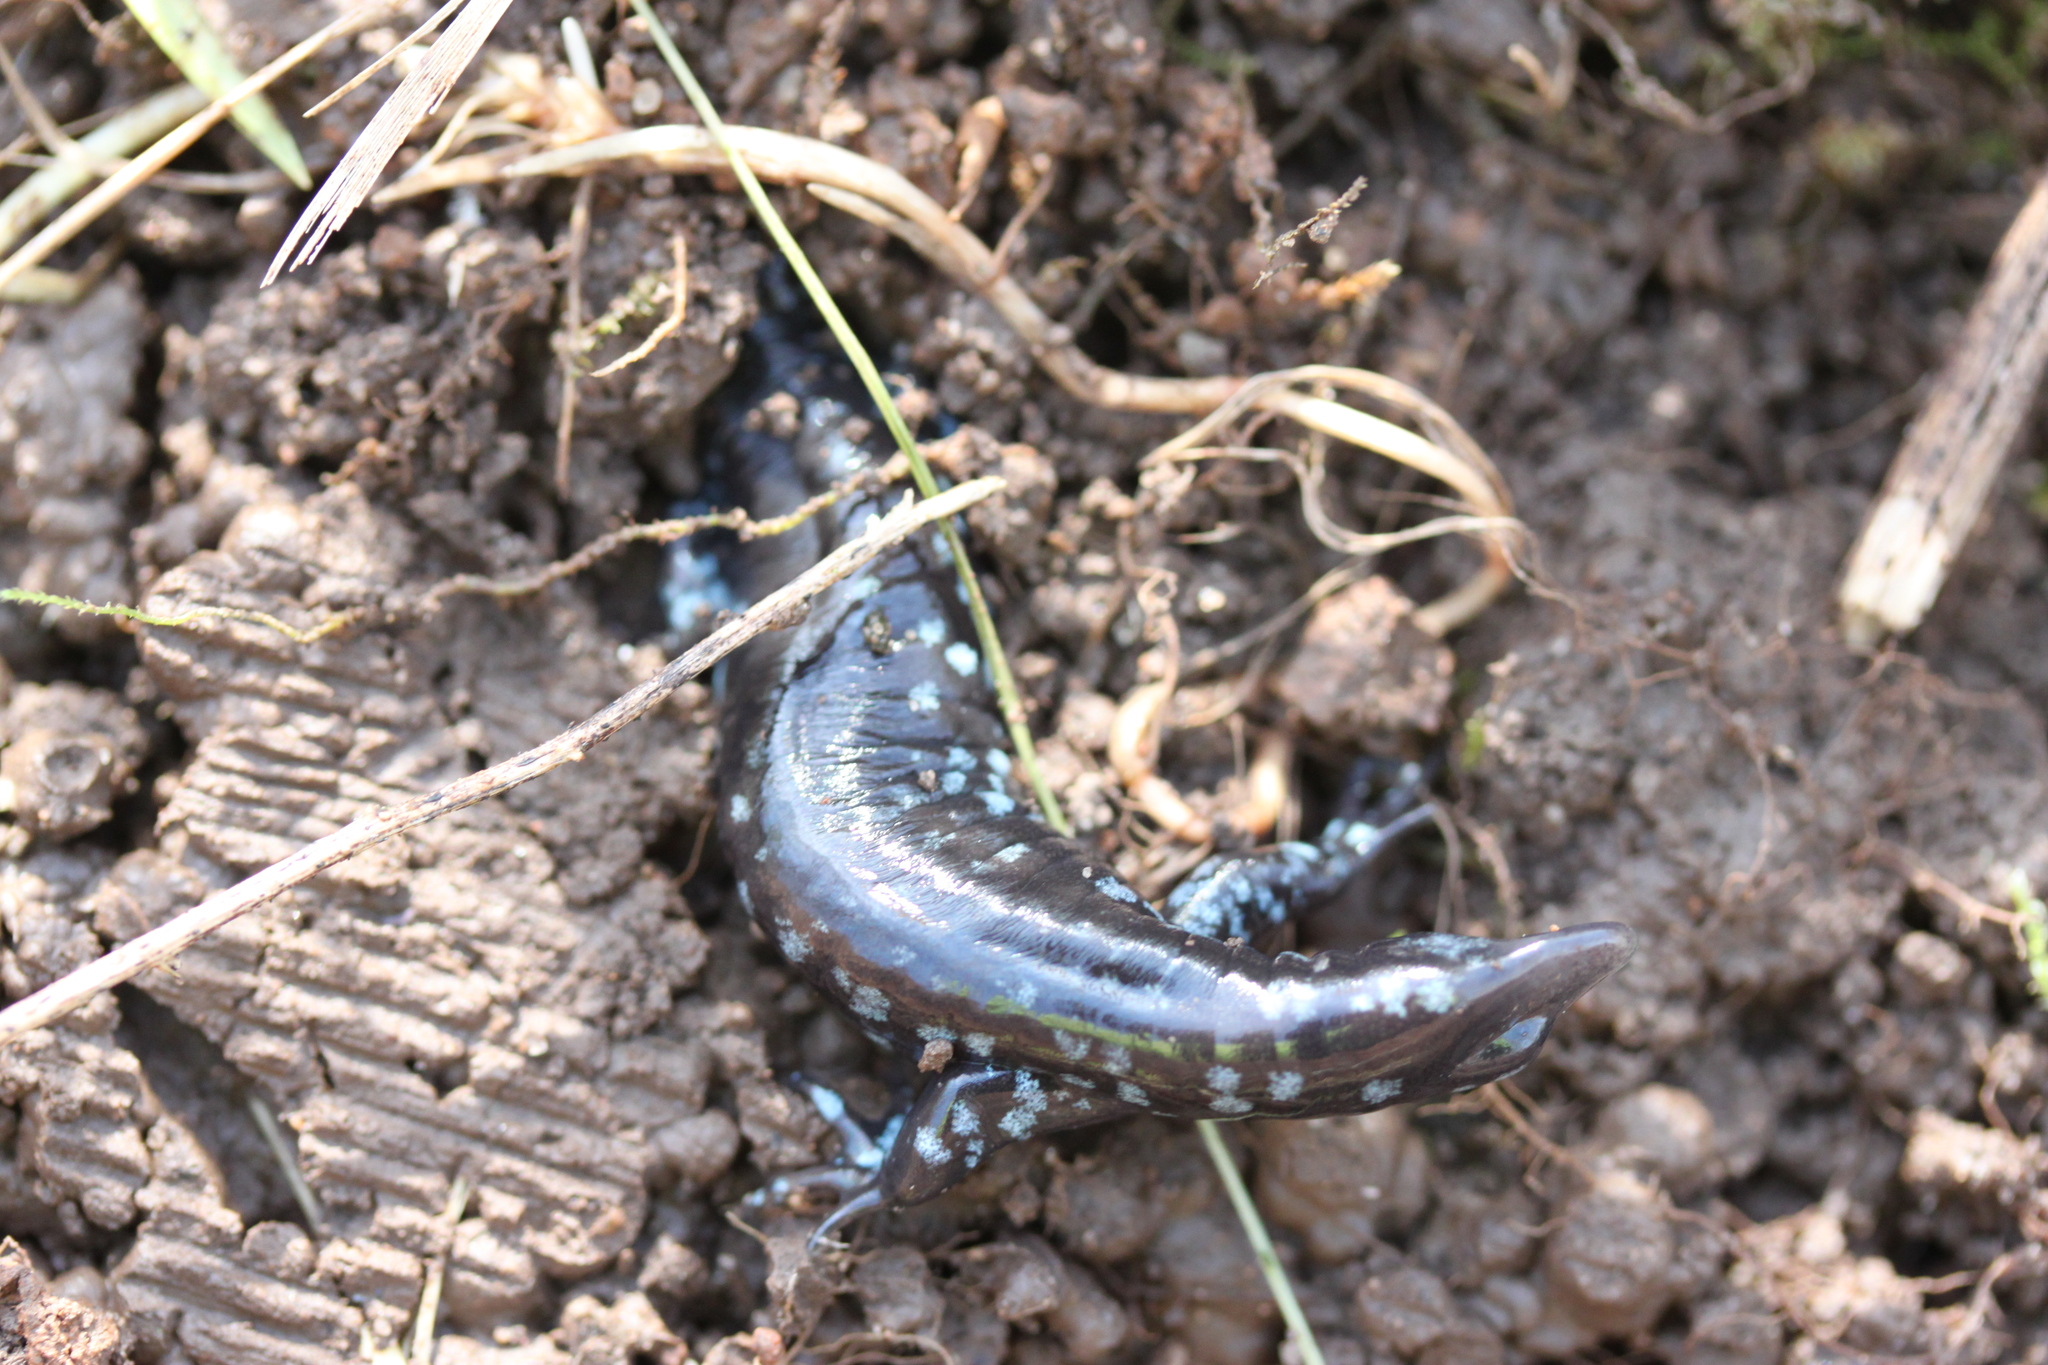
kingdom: Animalia
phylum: Chordata
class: Amphibia
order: Caudata
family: Ambystomatidae
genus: Ambystoma
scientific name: Ambystoma unisexual
